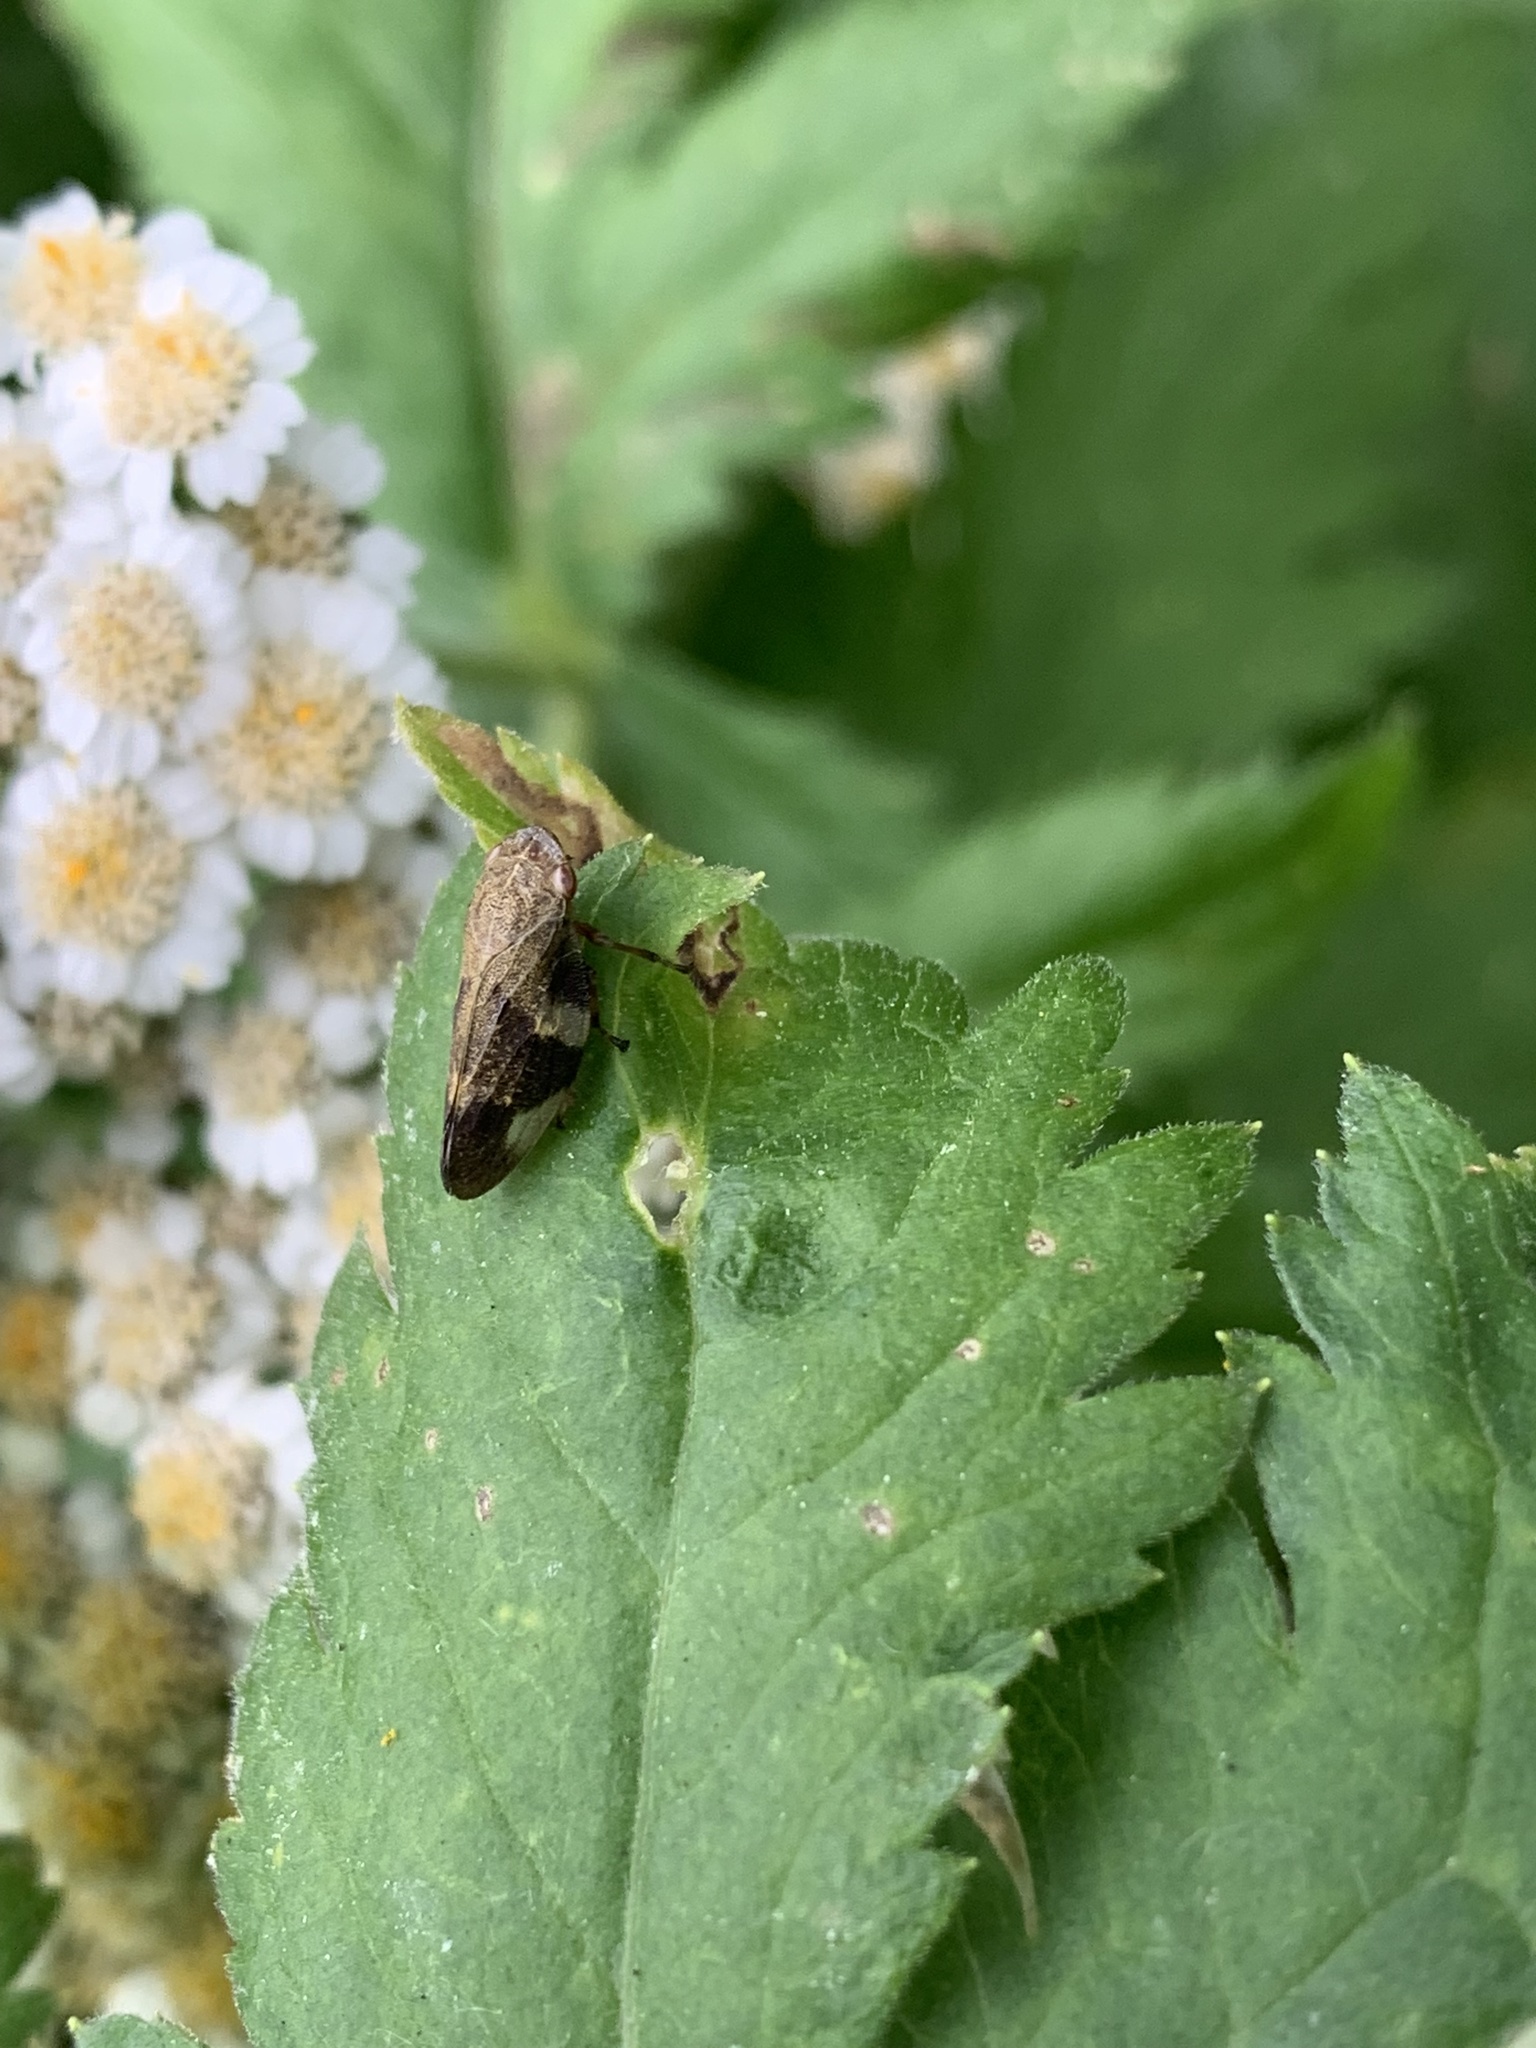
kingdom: Animalia
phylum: Arthropoda
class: Insecta
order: Hemiptera
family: Aphrophoridae
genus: Aphrophora
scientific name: Aphrophora alni
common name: European alder spittlebug
